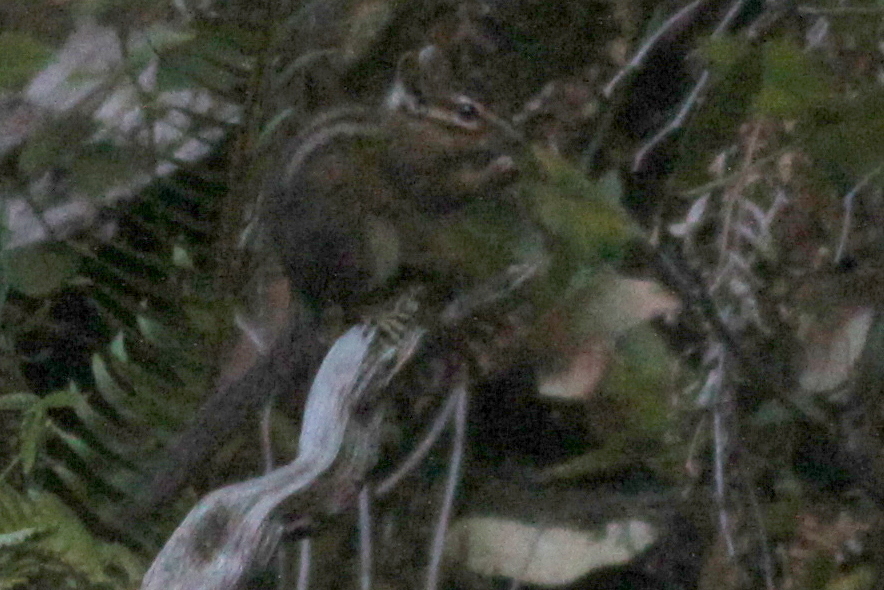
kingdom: Animalia
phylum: Chordata
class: Mammalia
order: Rodentia
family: Sciuridae
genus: Tamias
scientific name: Tamias senex
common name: Shadow chipmunk
